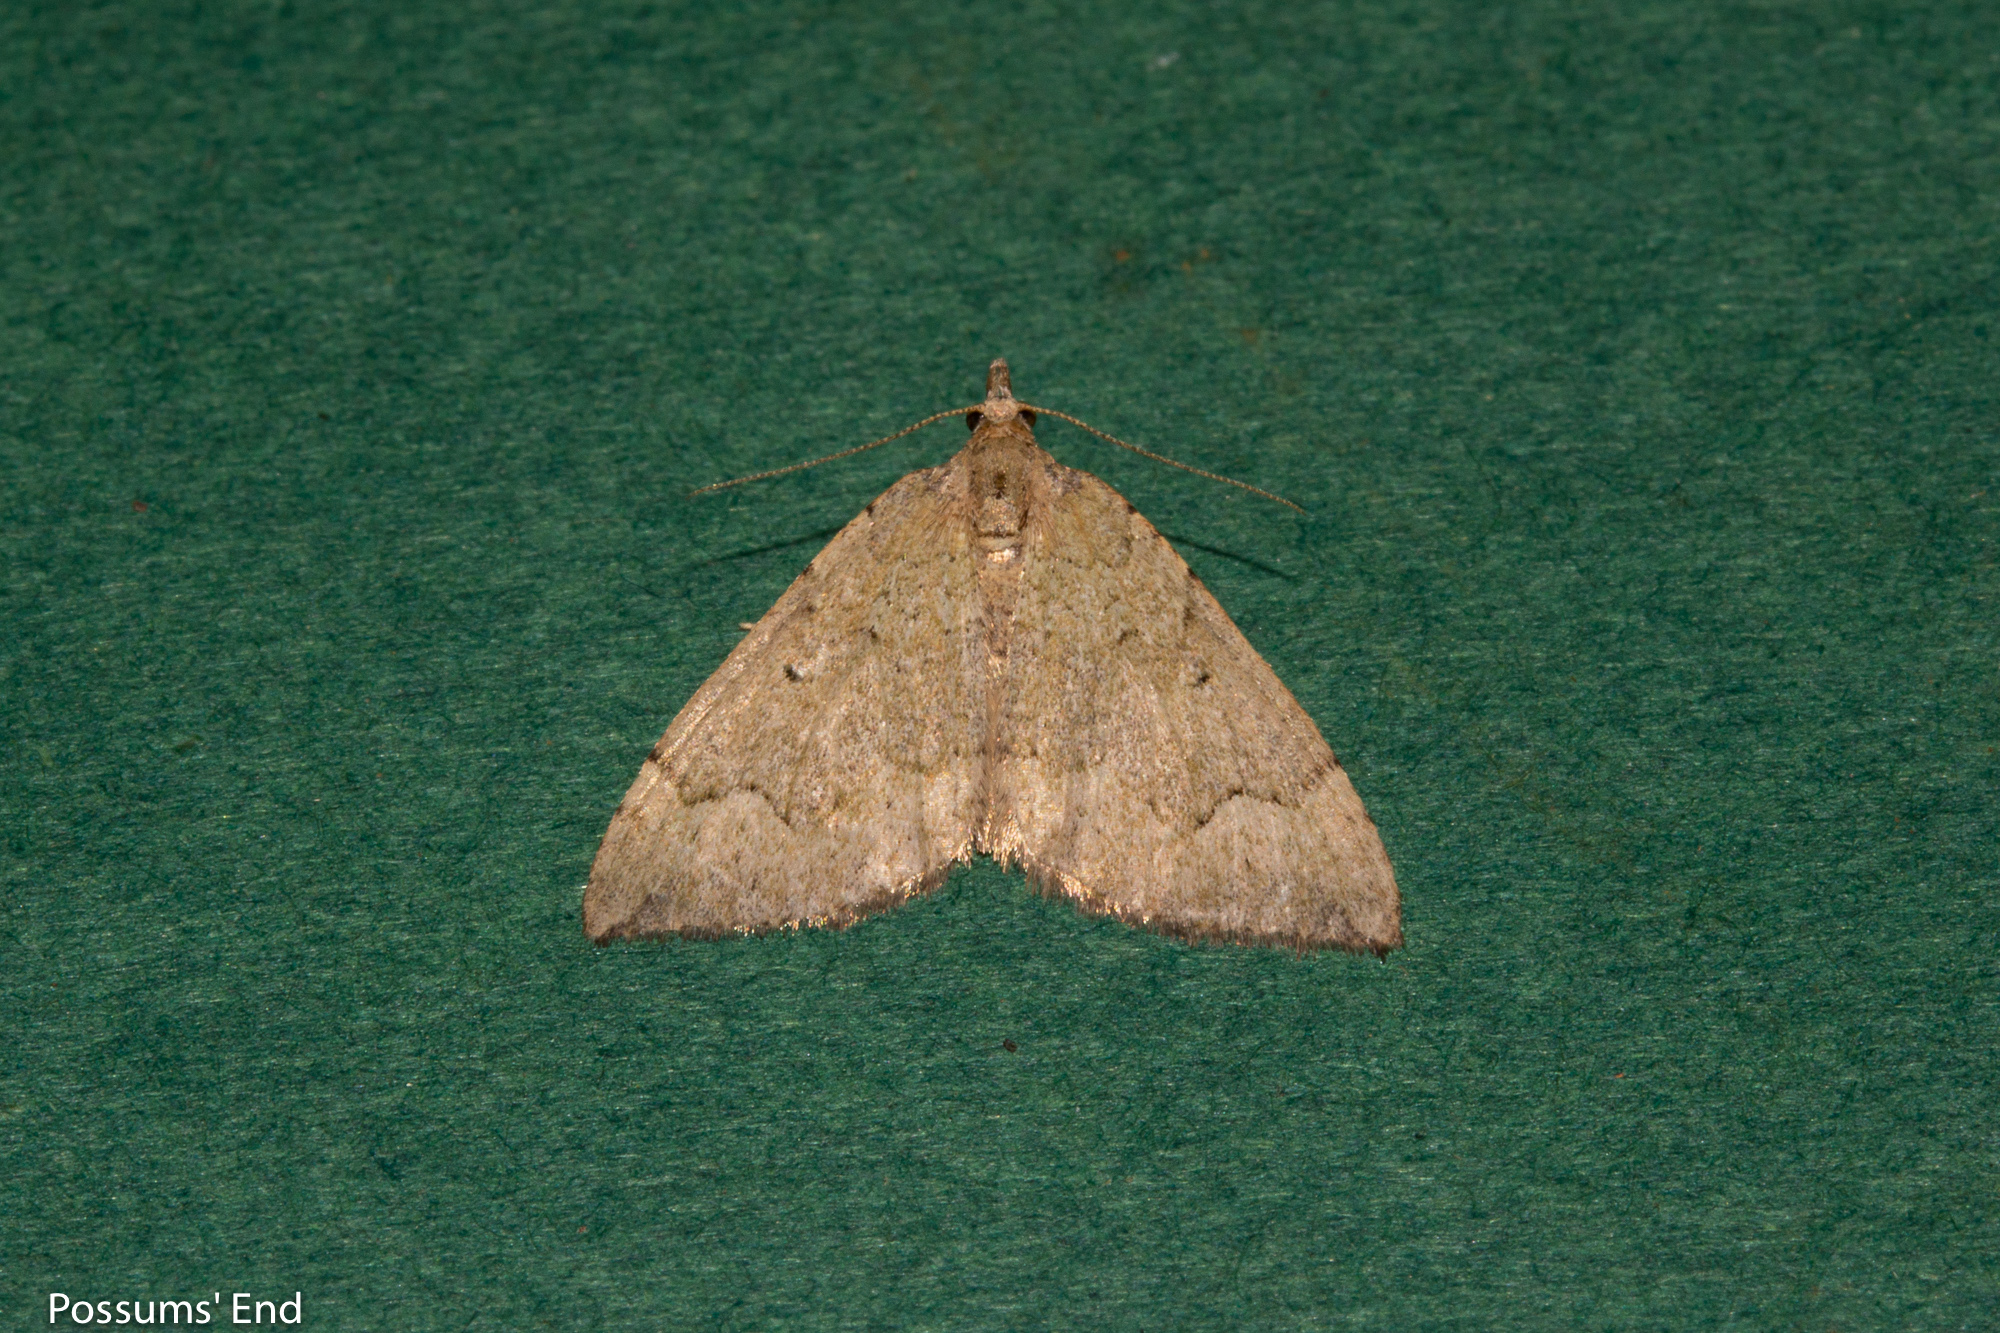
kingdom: Animalia
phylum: Arthropoda
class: Insecta
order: Lepidoptera
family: Geometridae
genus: Epyaxa
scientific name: Epyaxa rosearia
